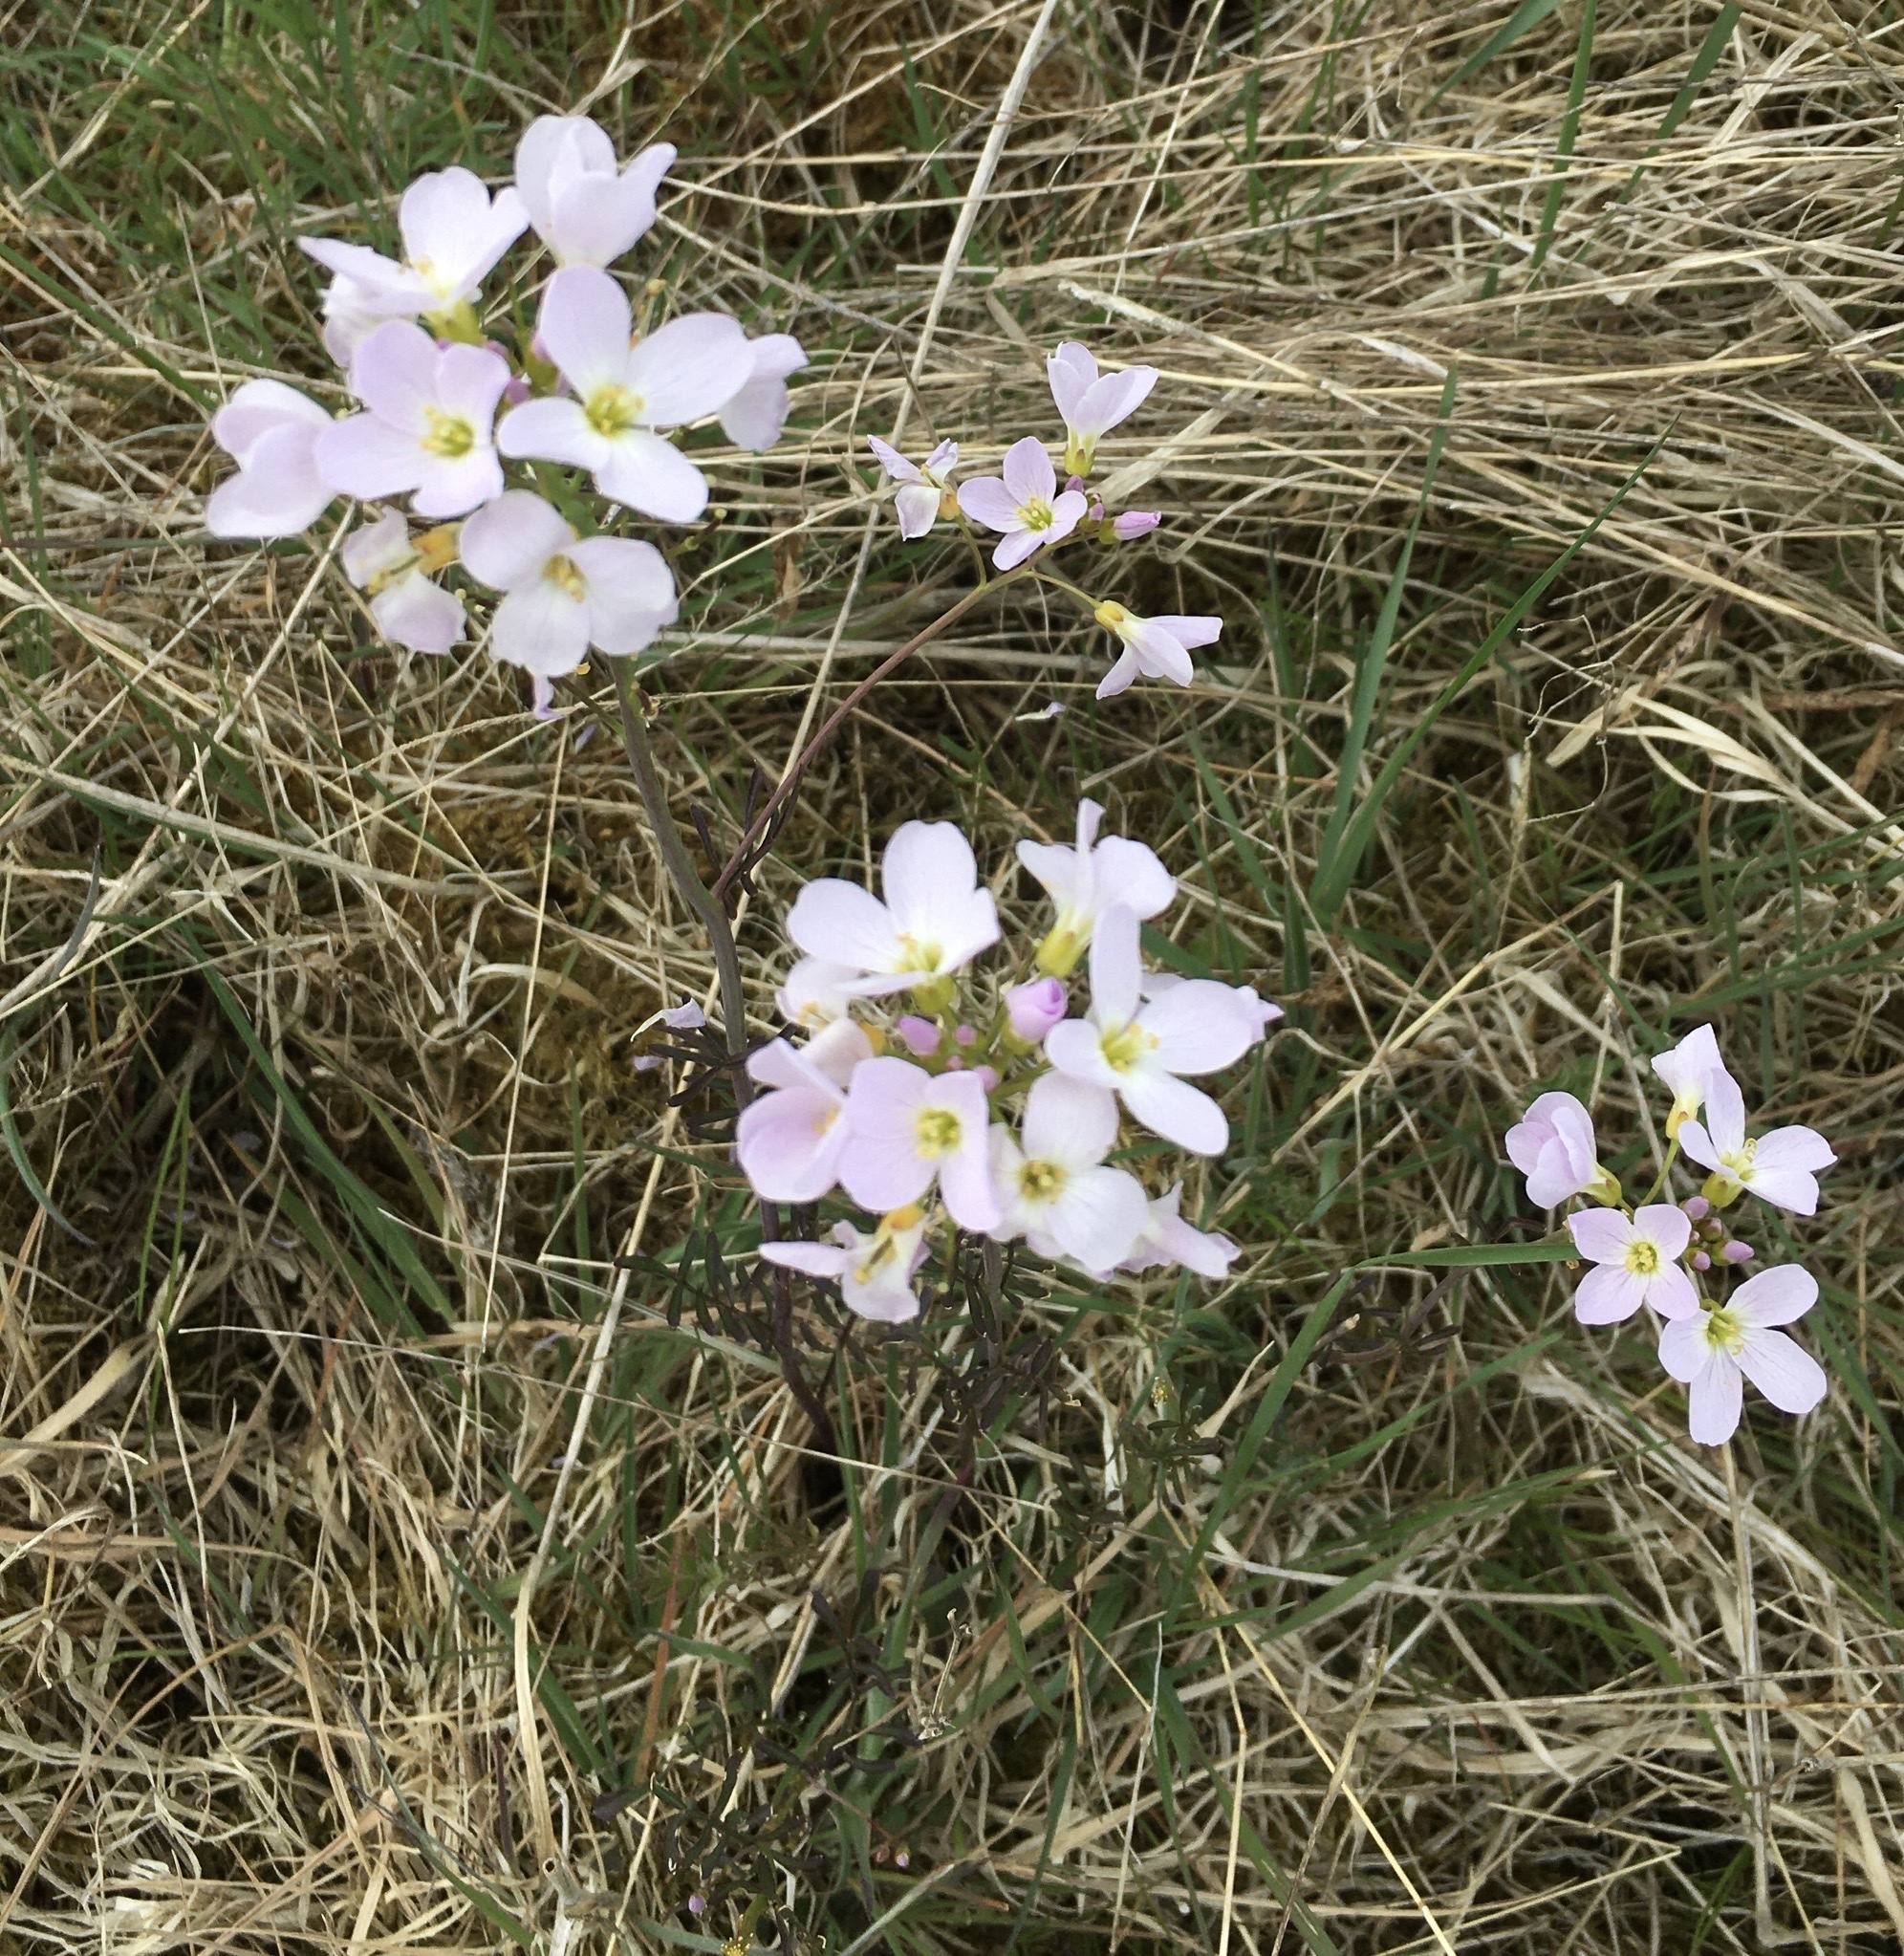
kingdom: Plantae
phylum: Tracheophyta
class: Magnoliopsida
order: Brassicales
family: Brassicaceae
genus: Cardamine
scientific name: Cardamine pratensis
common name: Cuckoo flower
